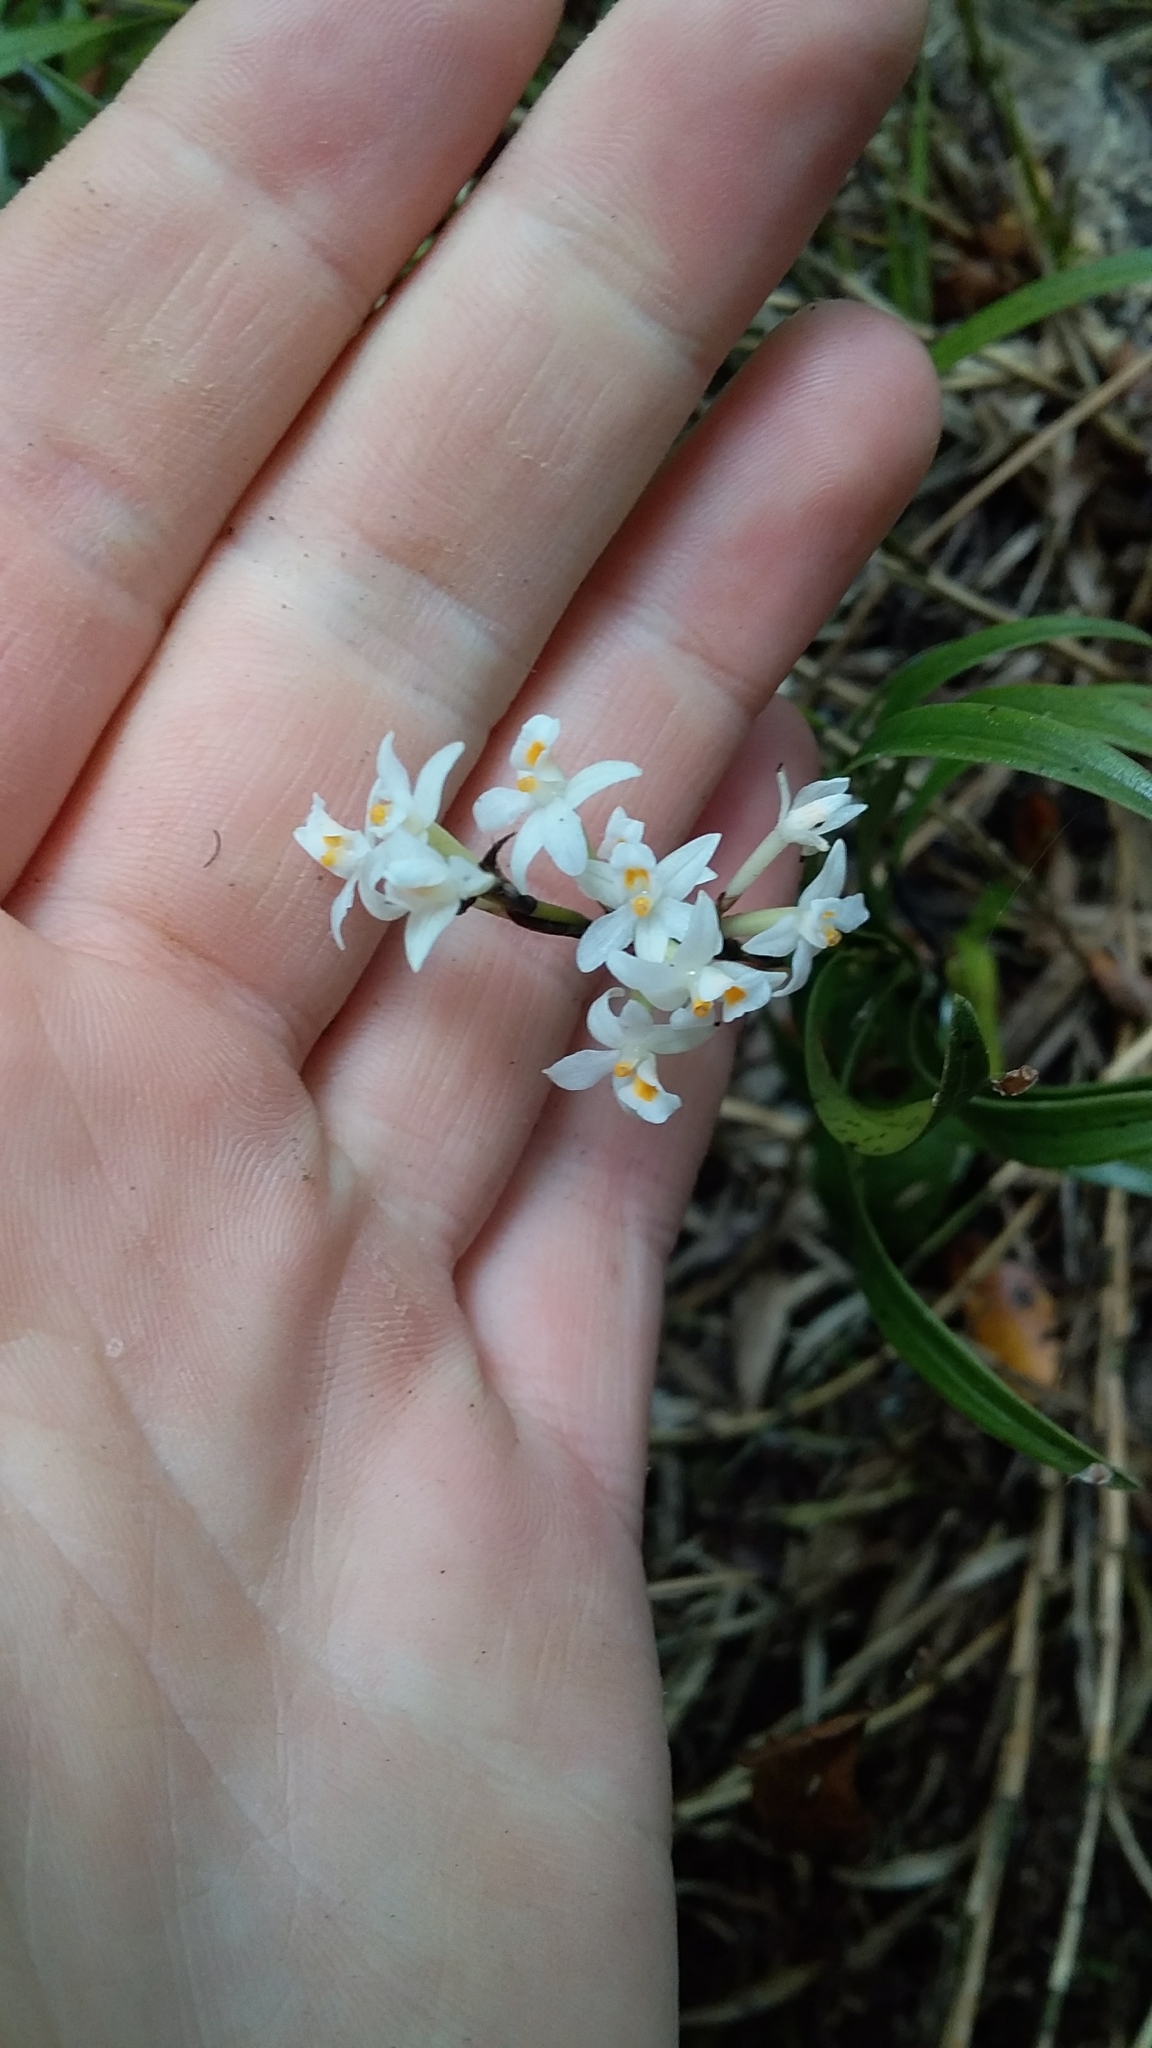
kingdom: Plantae
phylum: Tracheophyta
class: Liliopsida
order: Asparagales
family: Orchidaceae
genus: Earina
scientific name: Earina autumnalis
